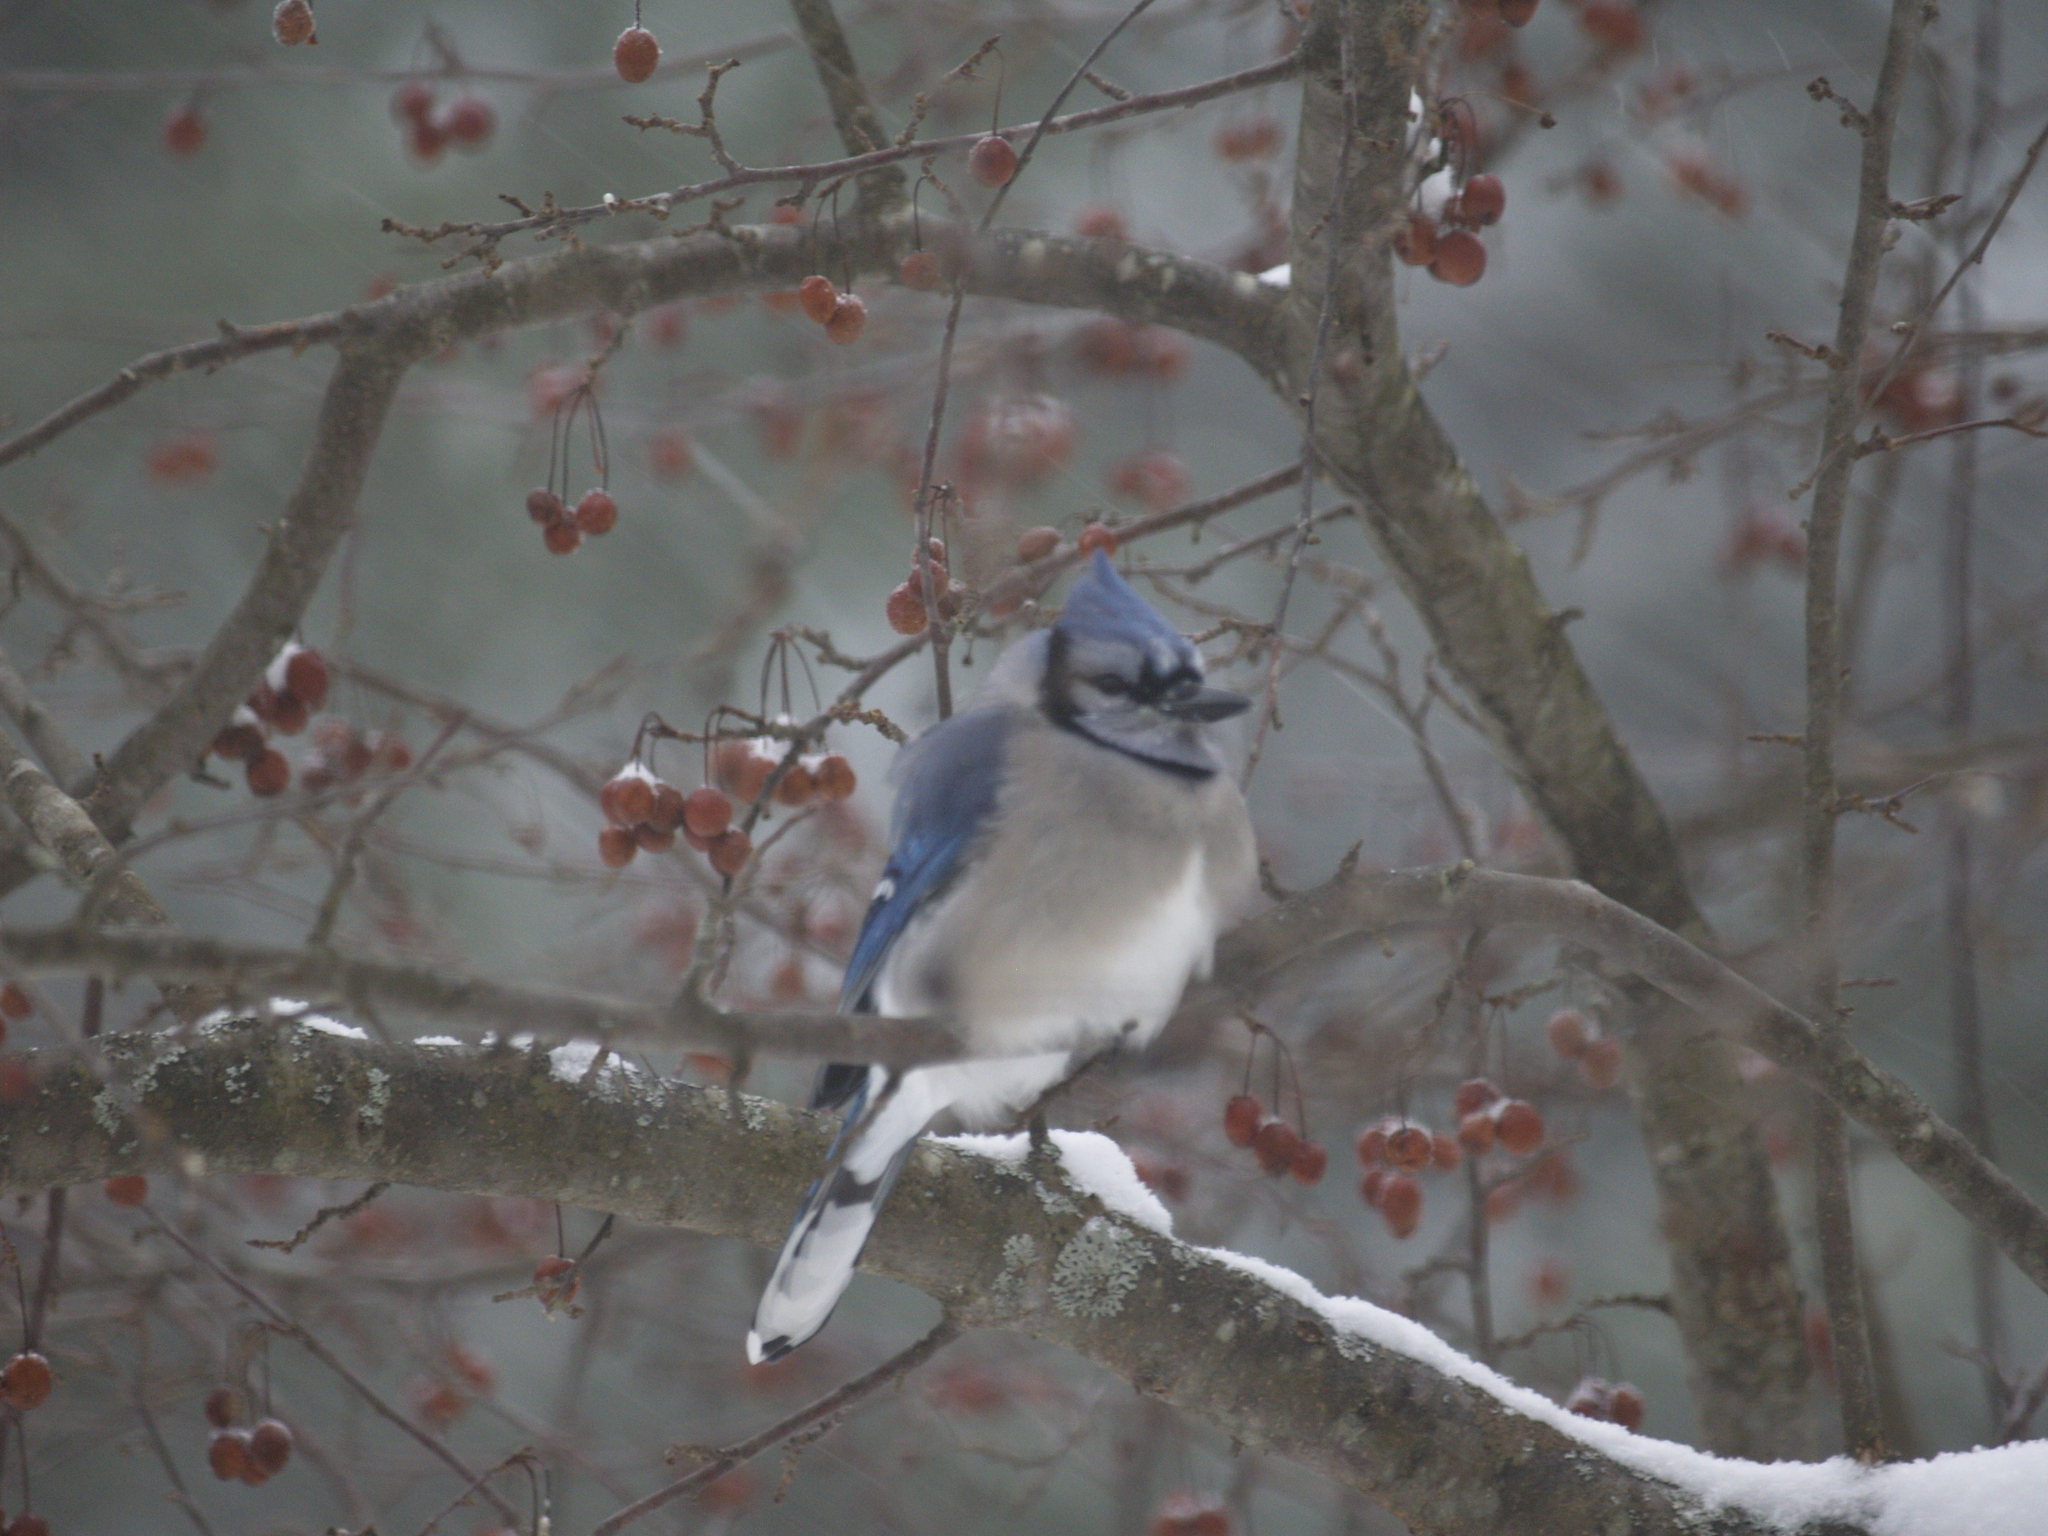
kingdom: Animalia
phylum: Chordata
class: Aves
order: Passeriformes
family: Corvidae
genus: Cyanocitta
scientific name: Cyanocitta cristata
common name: Blue jay
